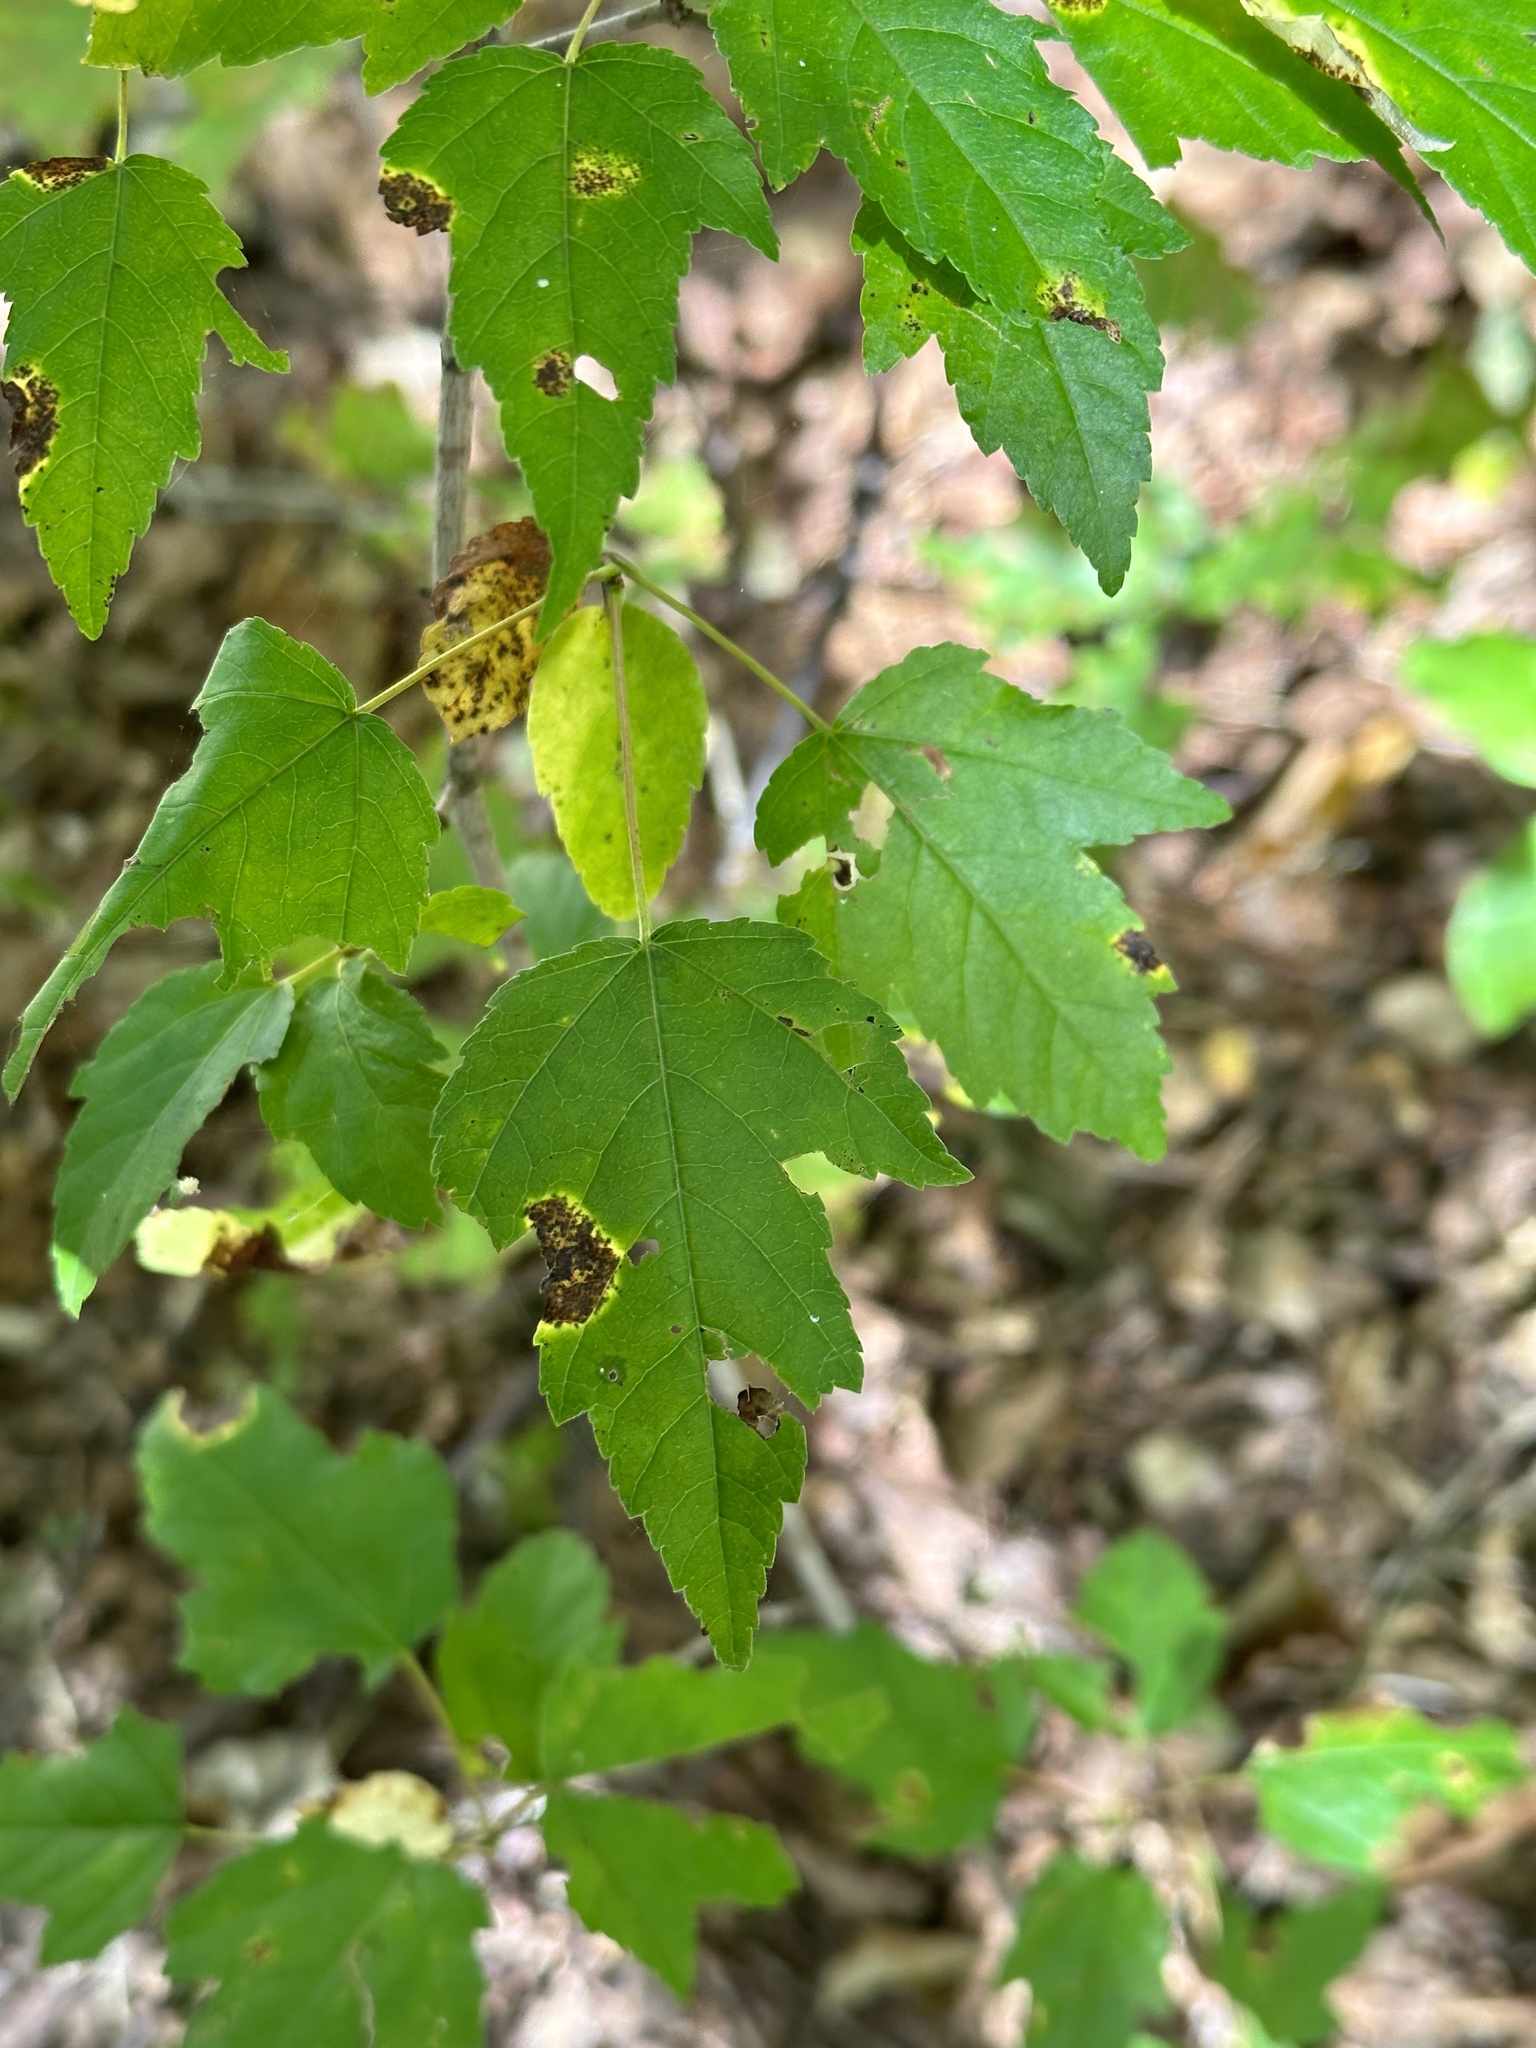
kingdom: Plantae
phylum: Tracheophyta
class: Magnoliopsida
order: Sapindales
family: Sapindaceae
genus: Acer
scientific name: Acer tataricum
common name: Tartar maple
